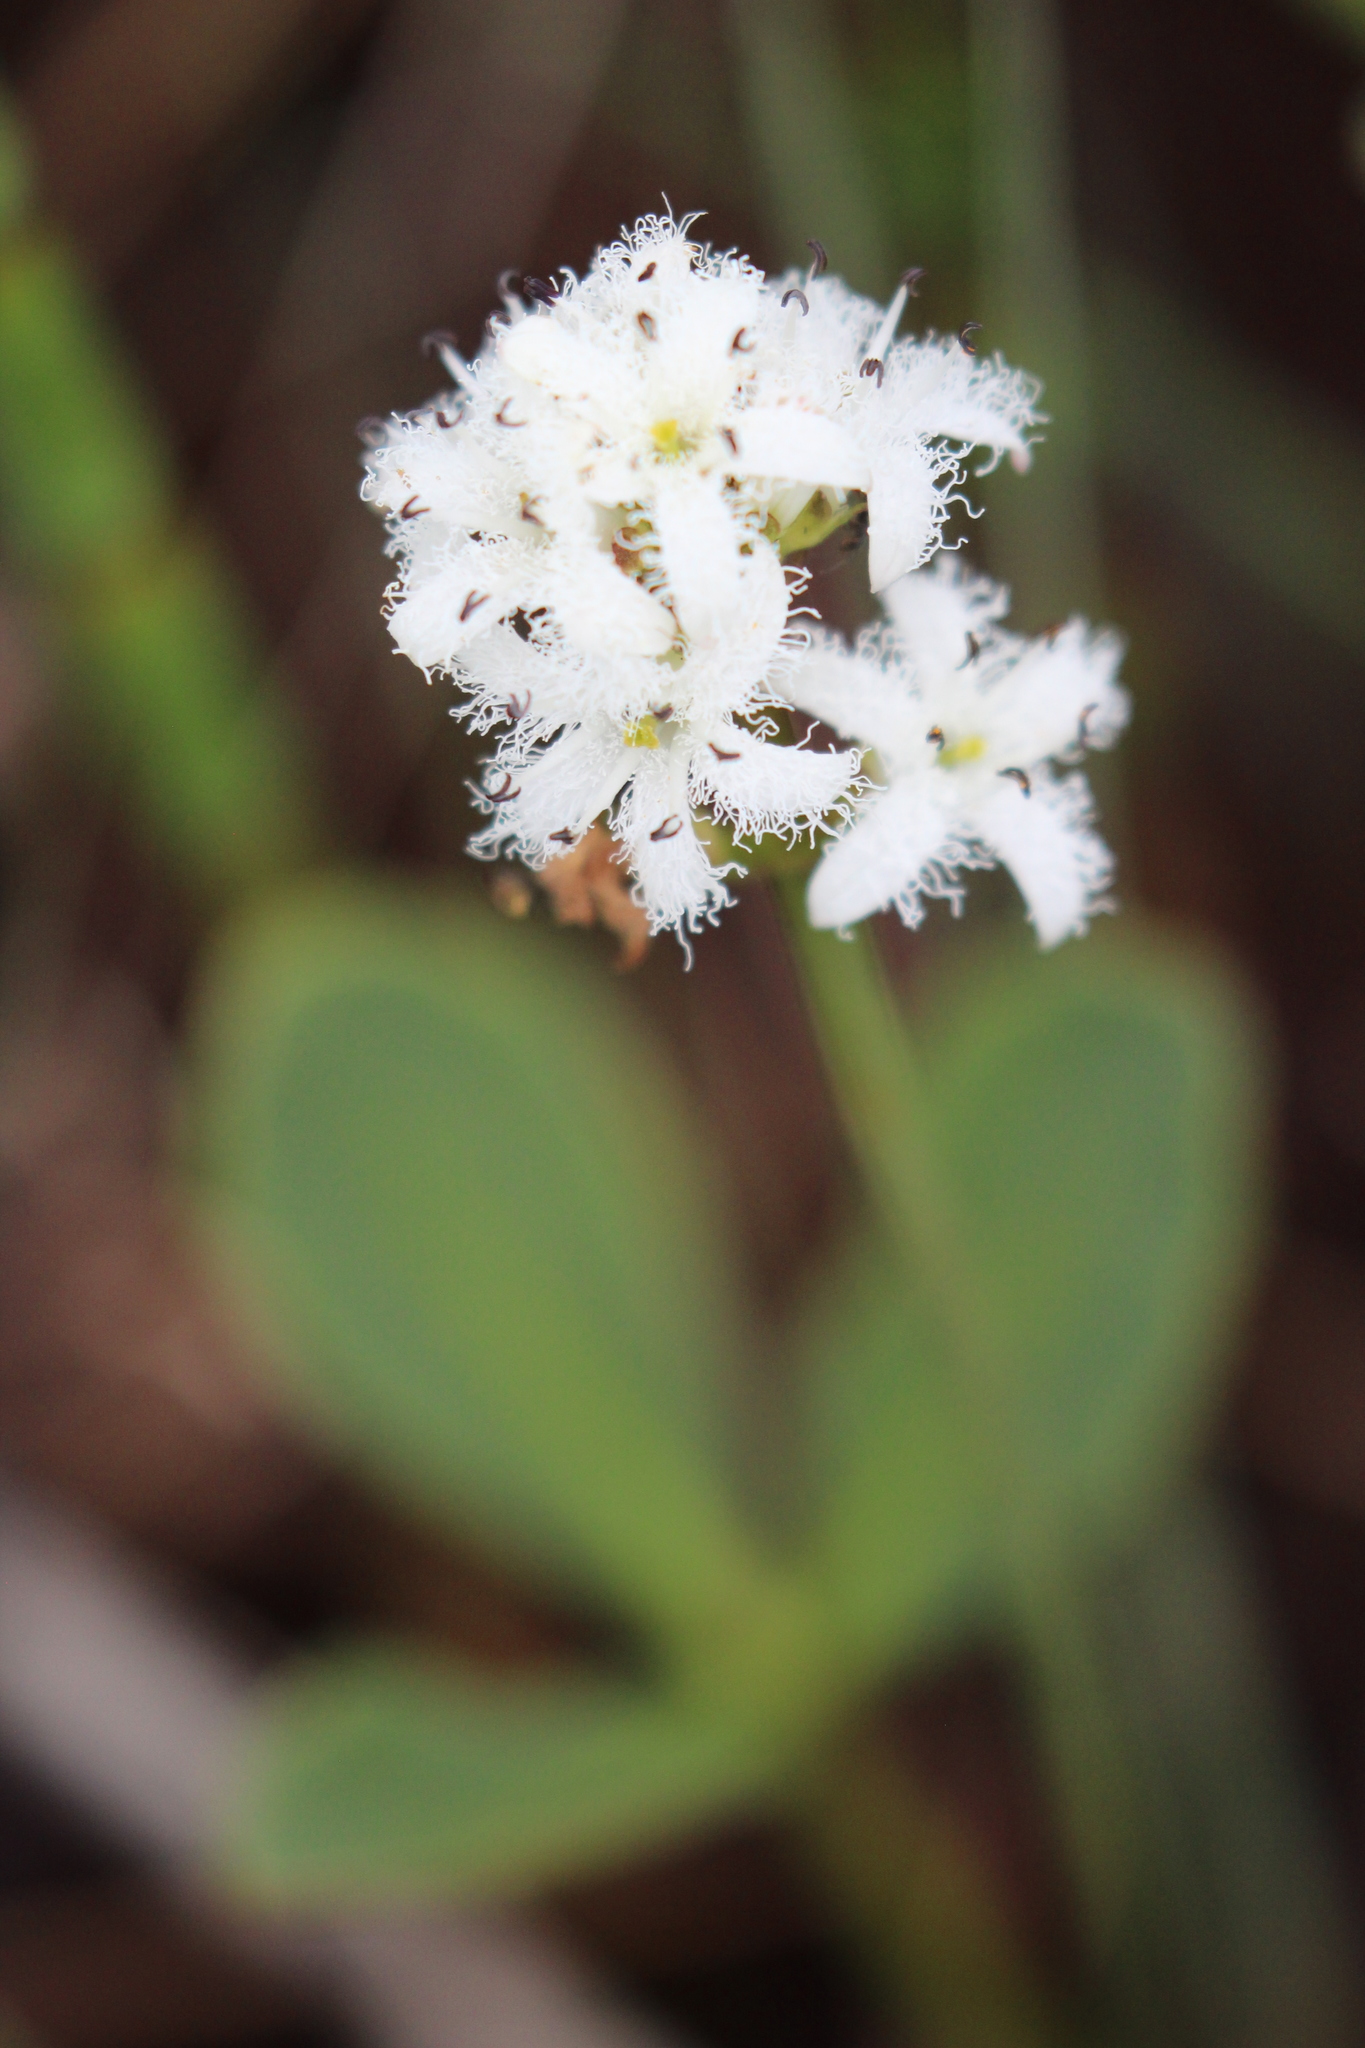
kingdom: Plantae
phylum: Tracheophyta
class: Magnoliopsida
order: Asterales
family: Menyanthaceae
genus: Menyanthes
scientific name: Menyanthes trifoliata
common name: Bogbean
